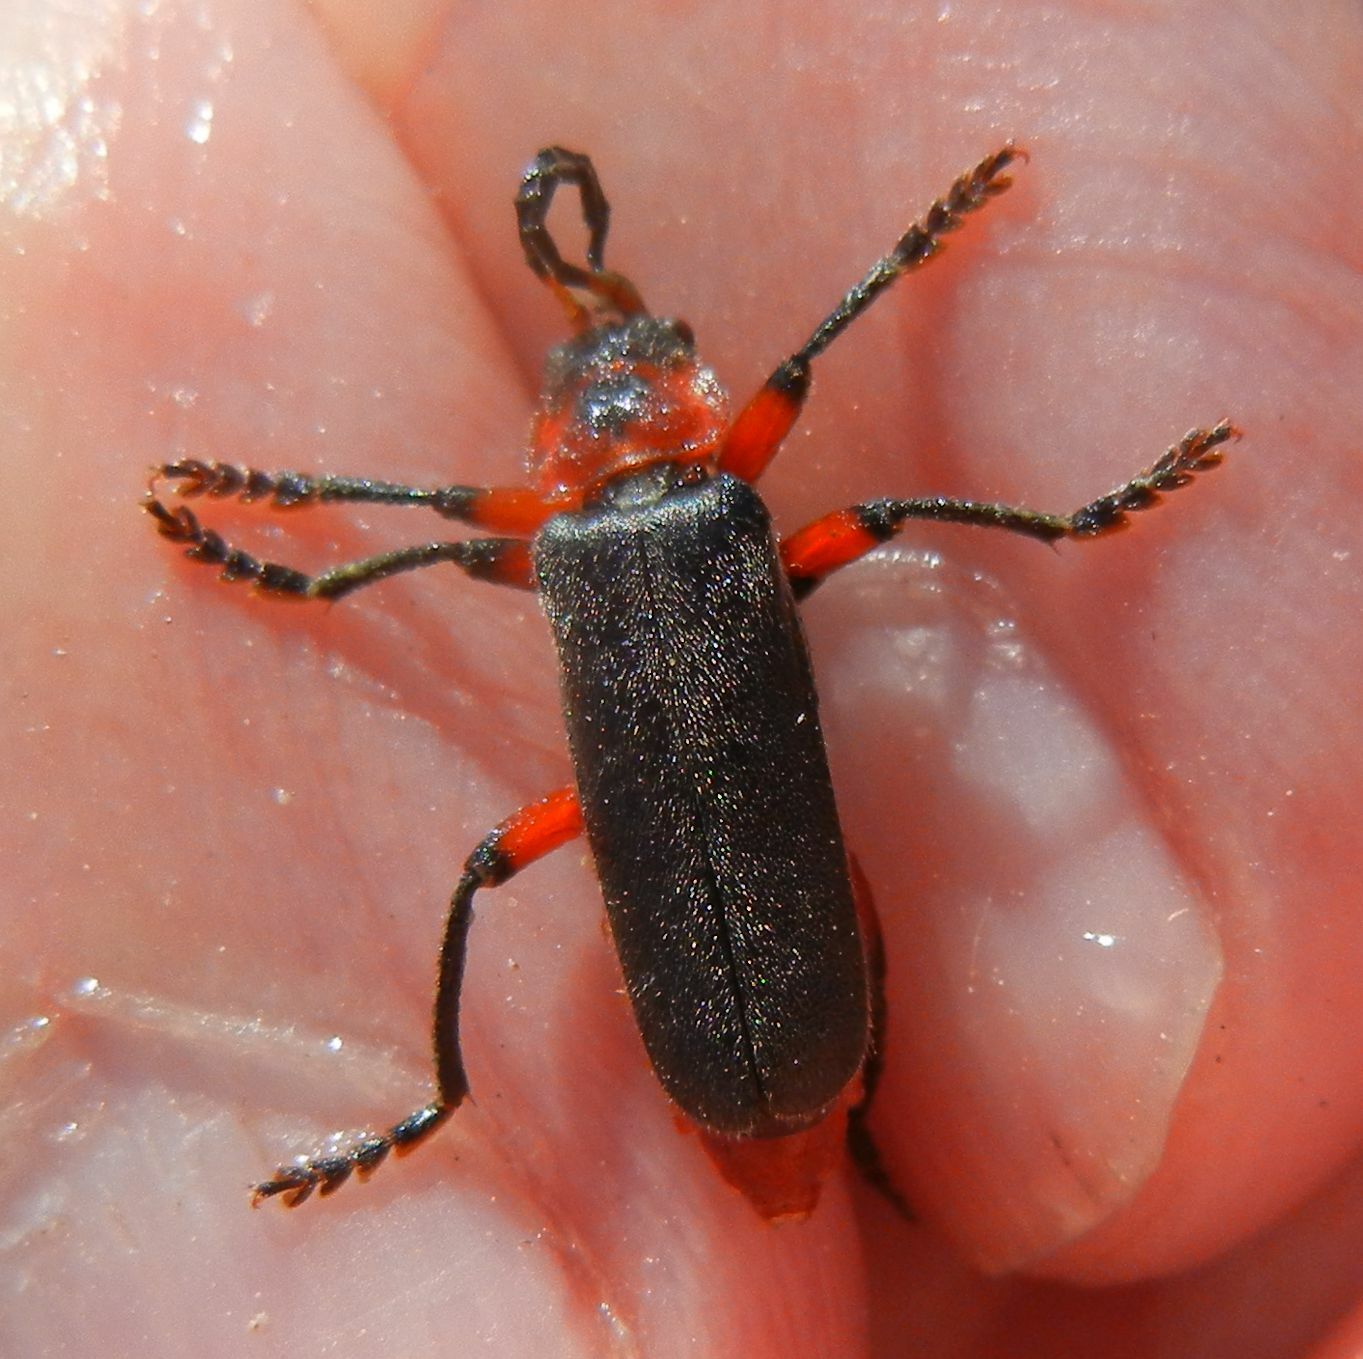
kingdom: Animalia
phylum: Arthropoda
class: Insecta
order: Coleoptera
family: Cantharidae
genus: Cantharis
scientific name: Cantharis rustica
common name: Soldier beetle
